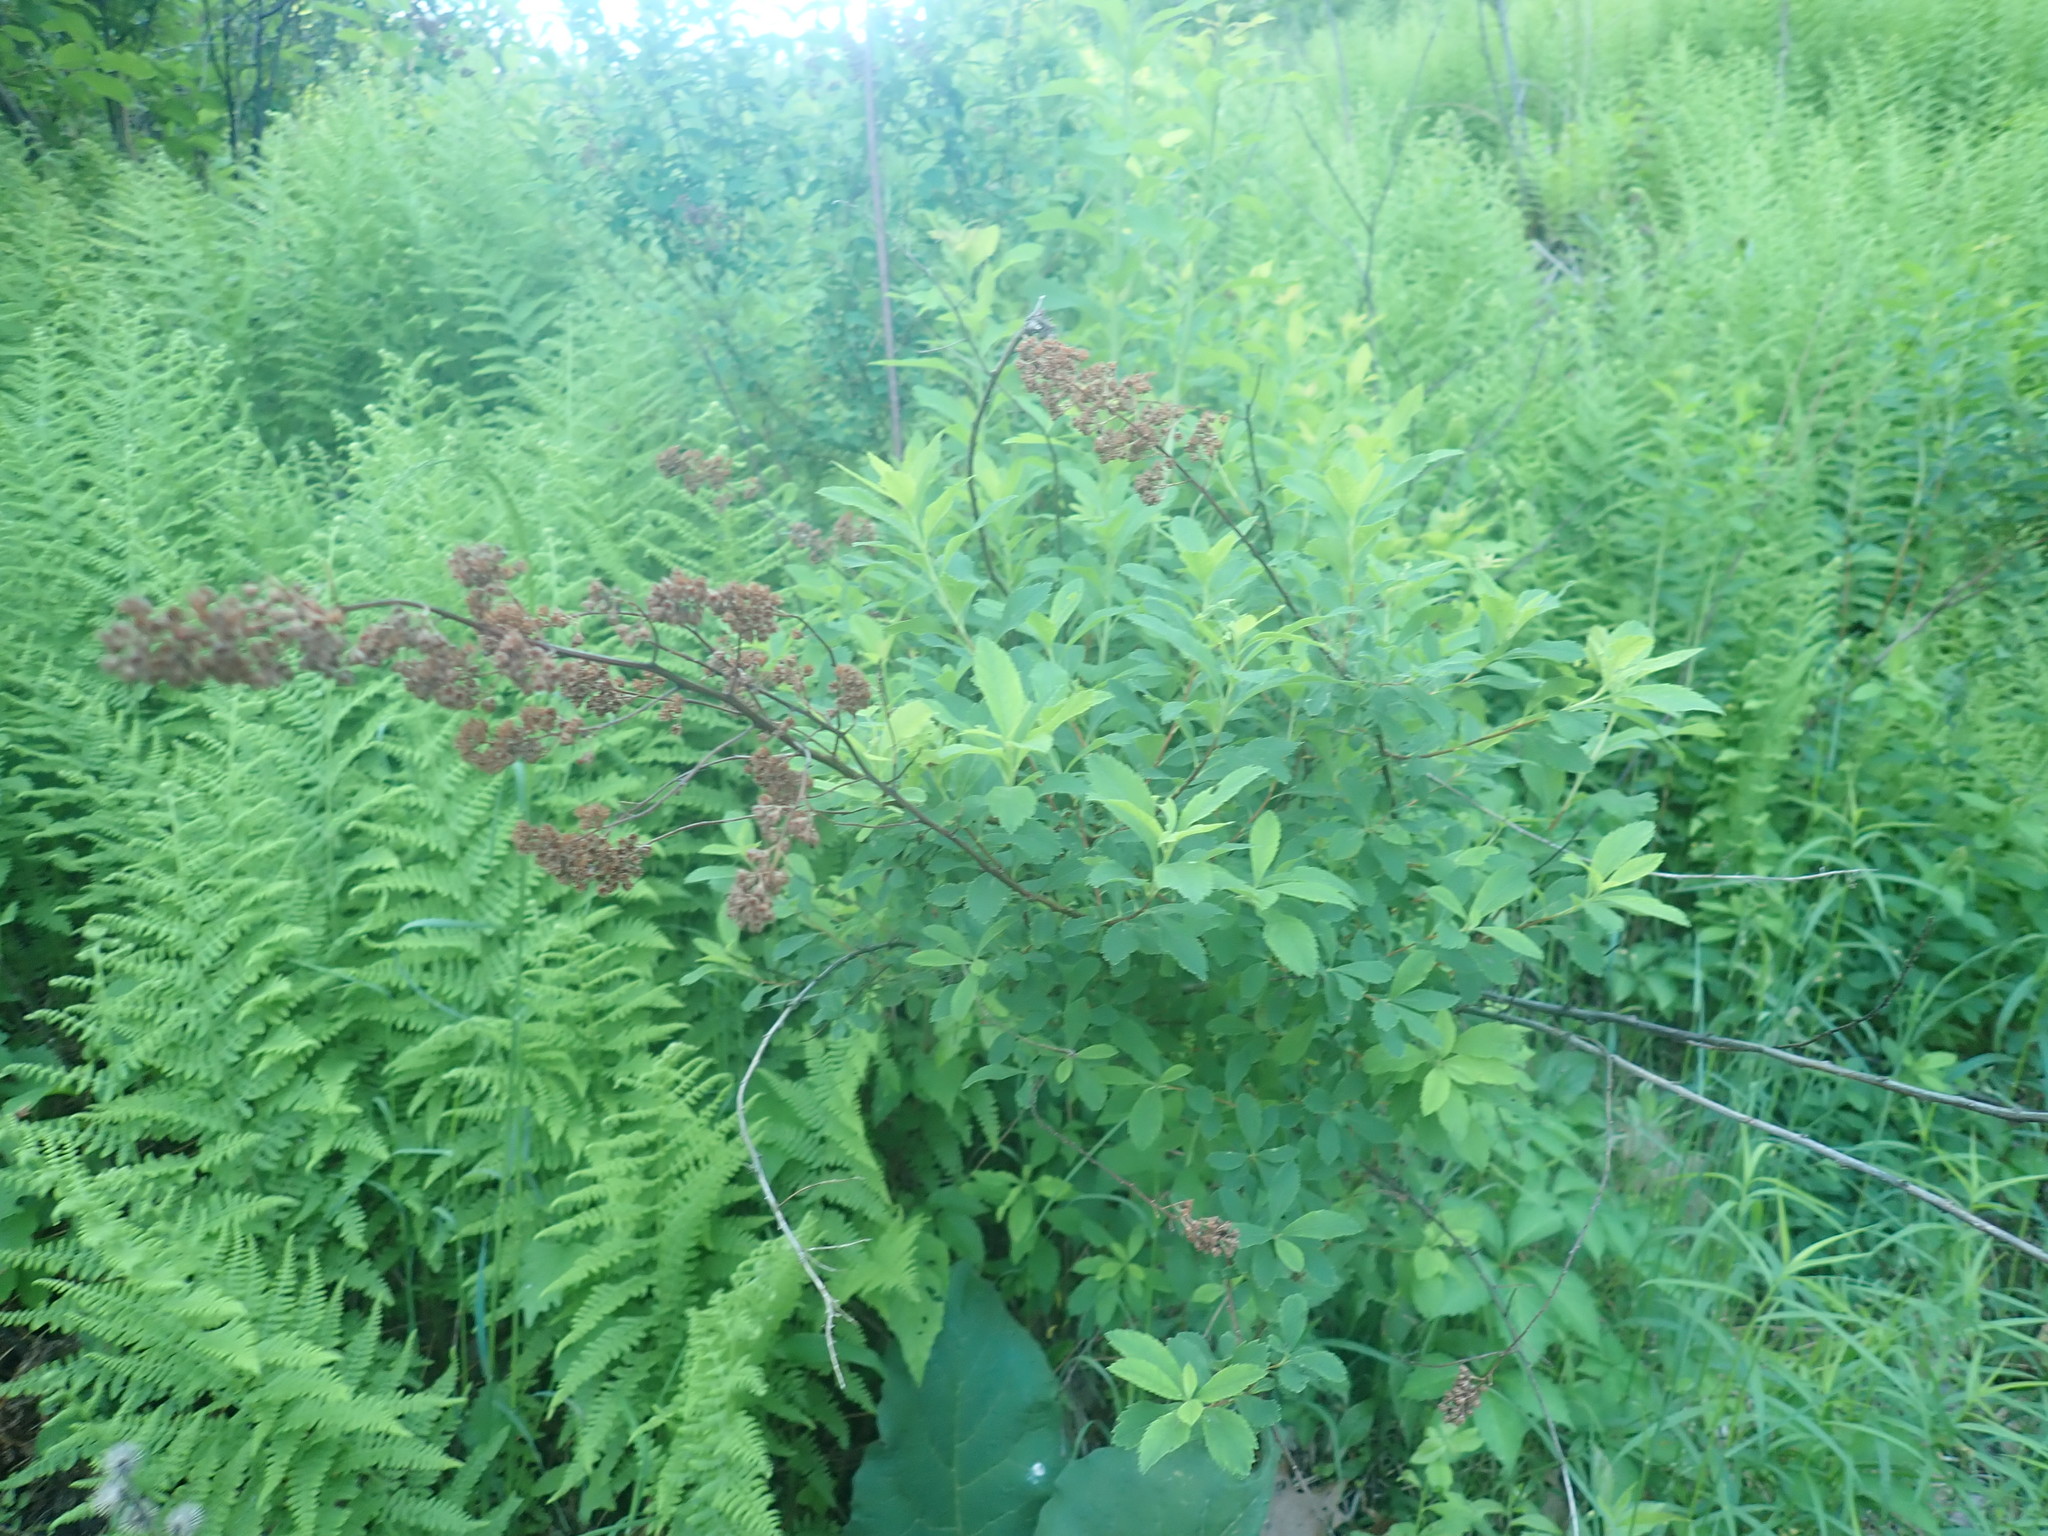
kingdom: Plantae
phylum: Tracheophyta
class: Magnoliopsida
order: Rosales
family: Rosaceae
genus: Spiraea
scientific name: Spiraea alba
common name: Pale bridewort
